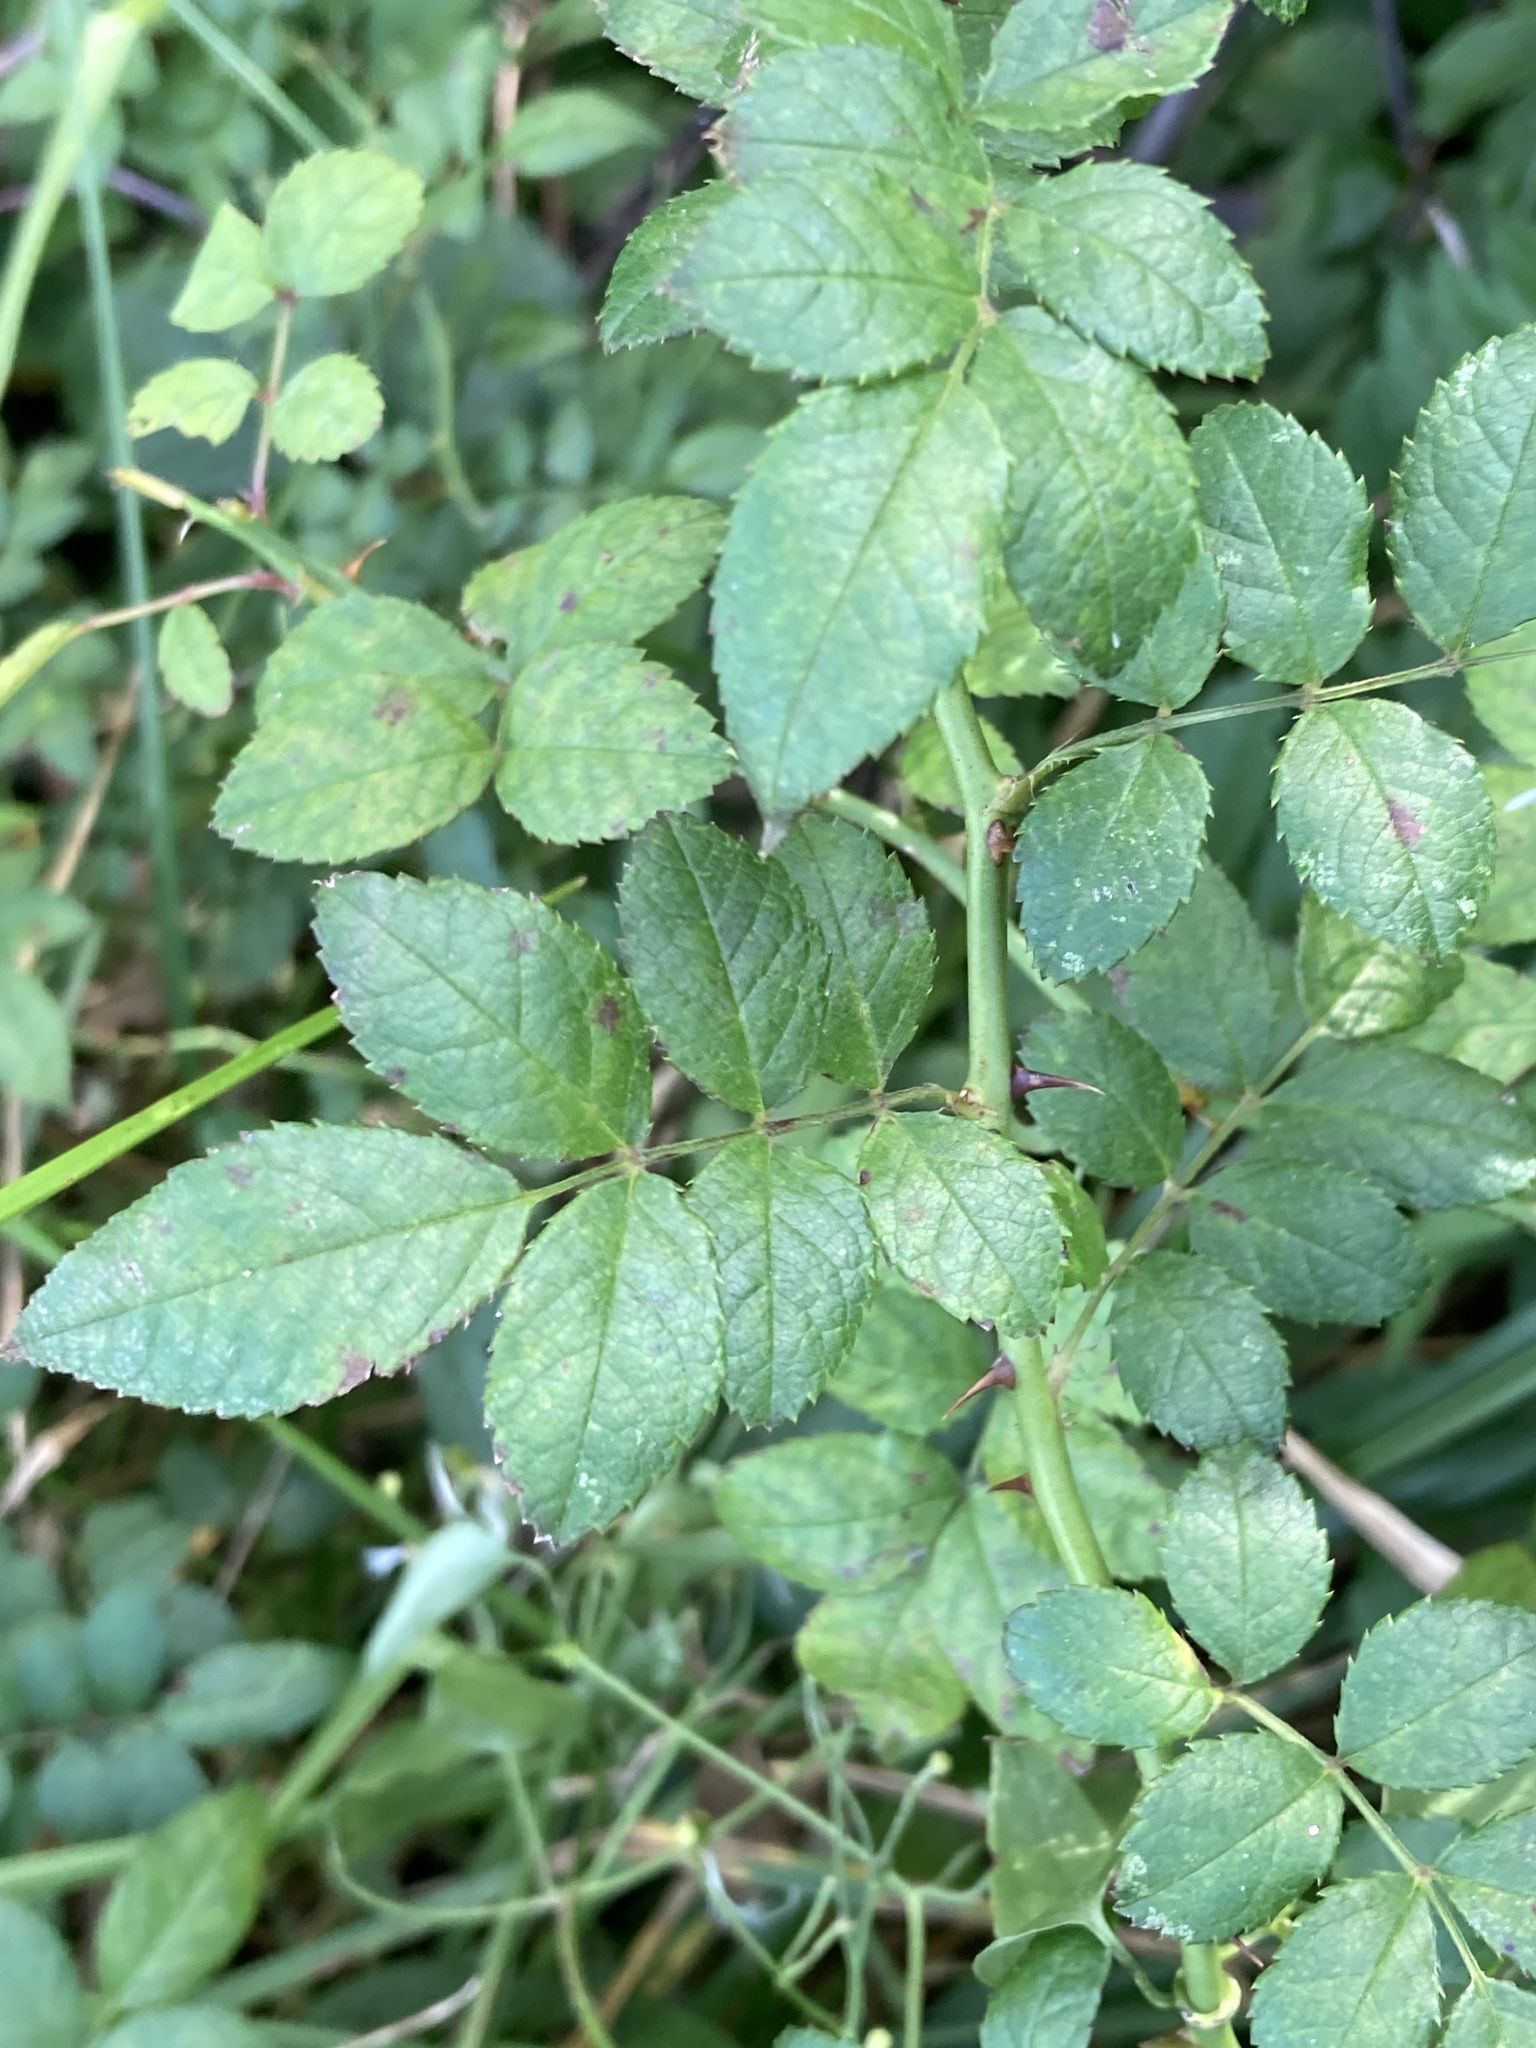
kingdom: Plantae
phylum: Tracheophyta
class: Magnoliopsida
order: Rosales
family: Rosaceae
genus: Rosa
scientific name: Rosa multiflora
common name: Multiflora rose
